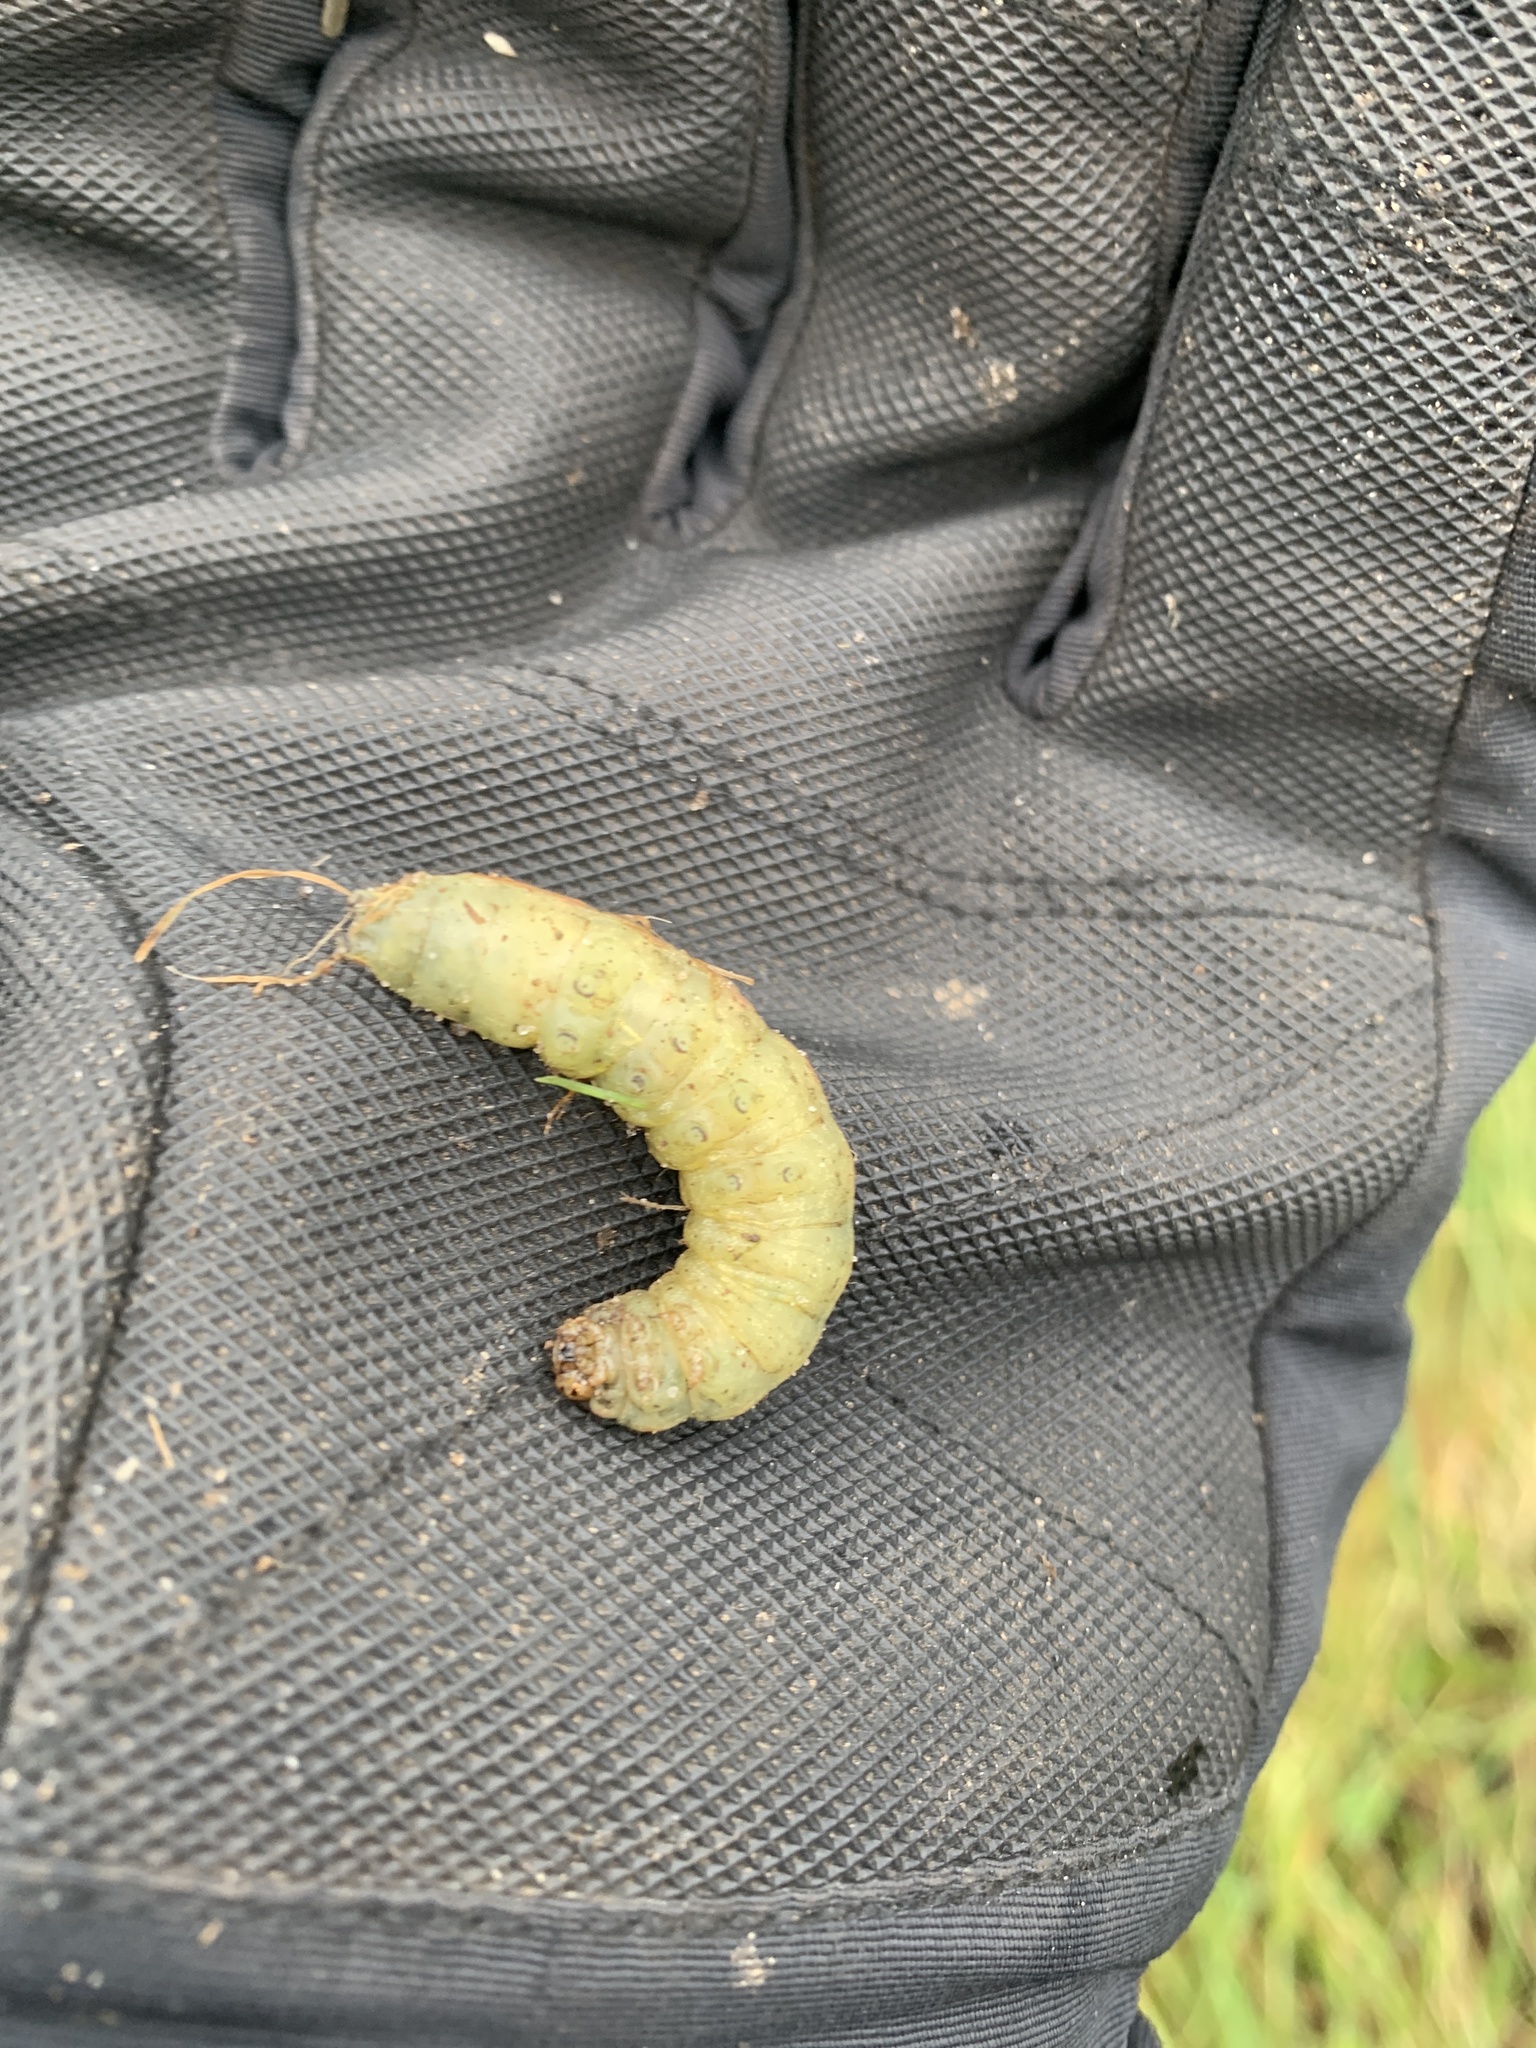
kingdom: Animalia
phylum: Arthropoda
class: Insecta
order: Lepidoptera
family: Noctuidae
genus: Noctua
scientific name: Noctua pronuba
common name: Large yellow underwing
